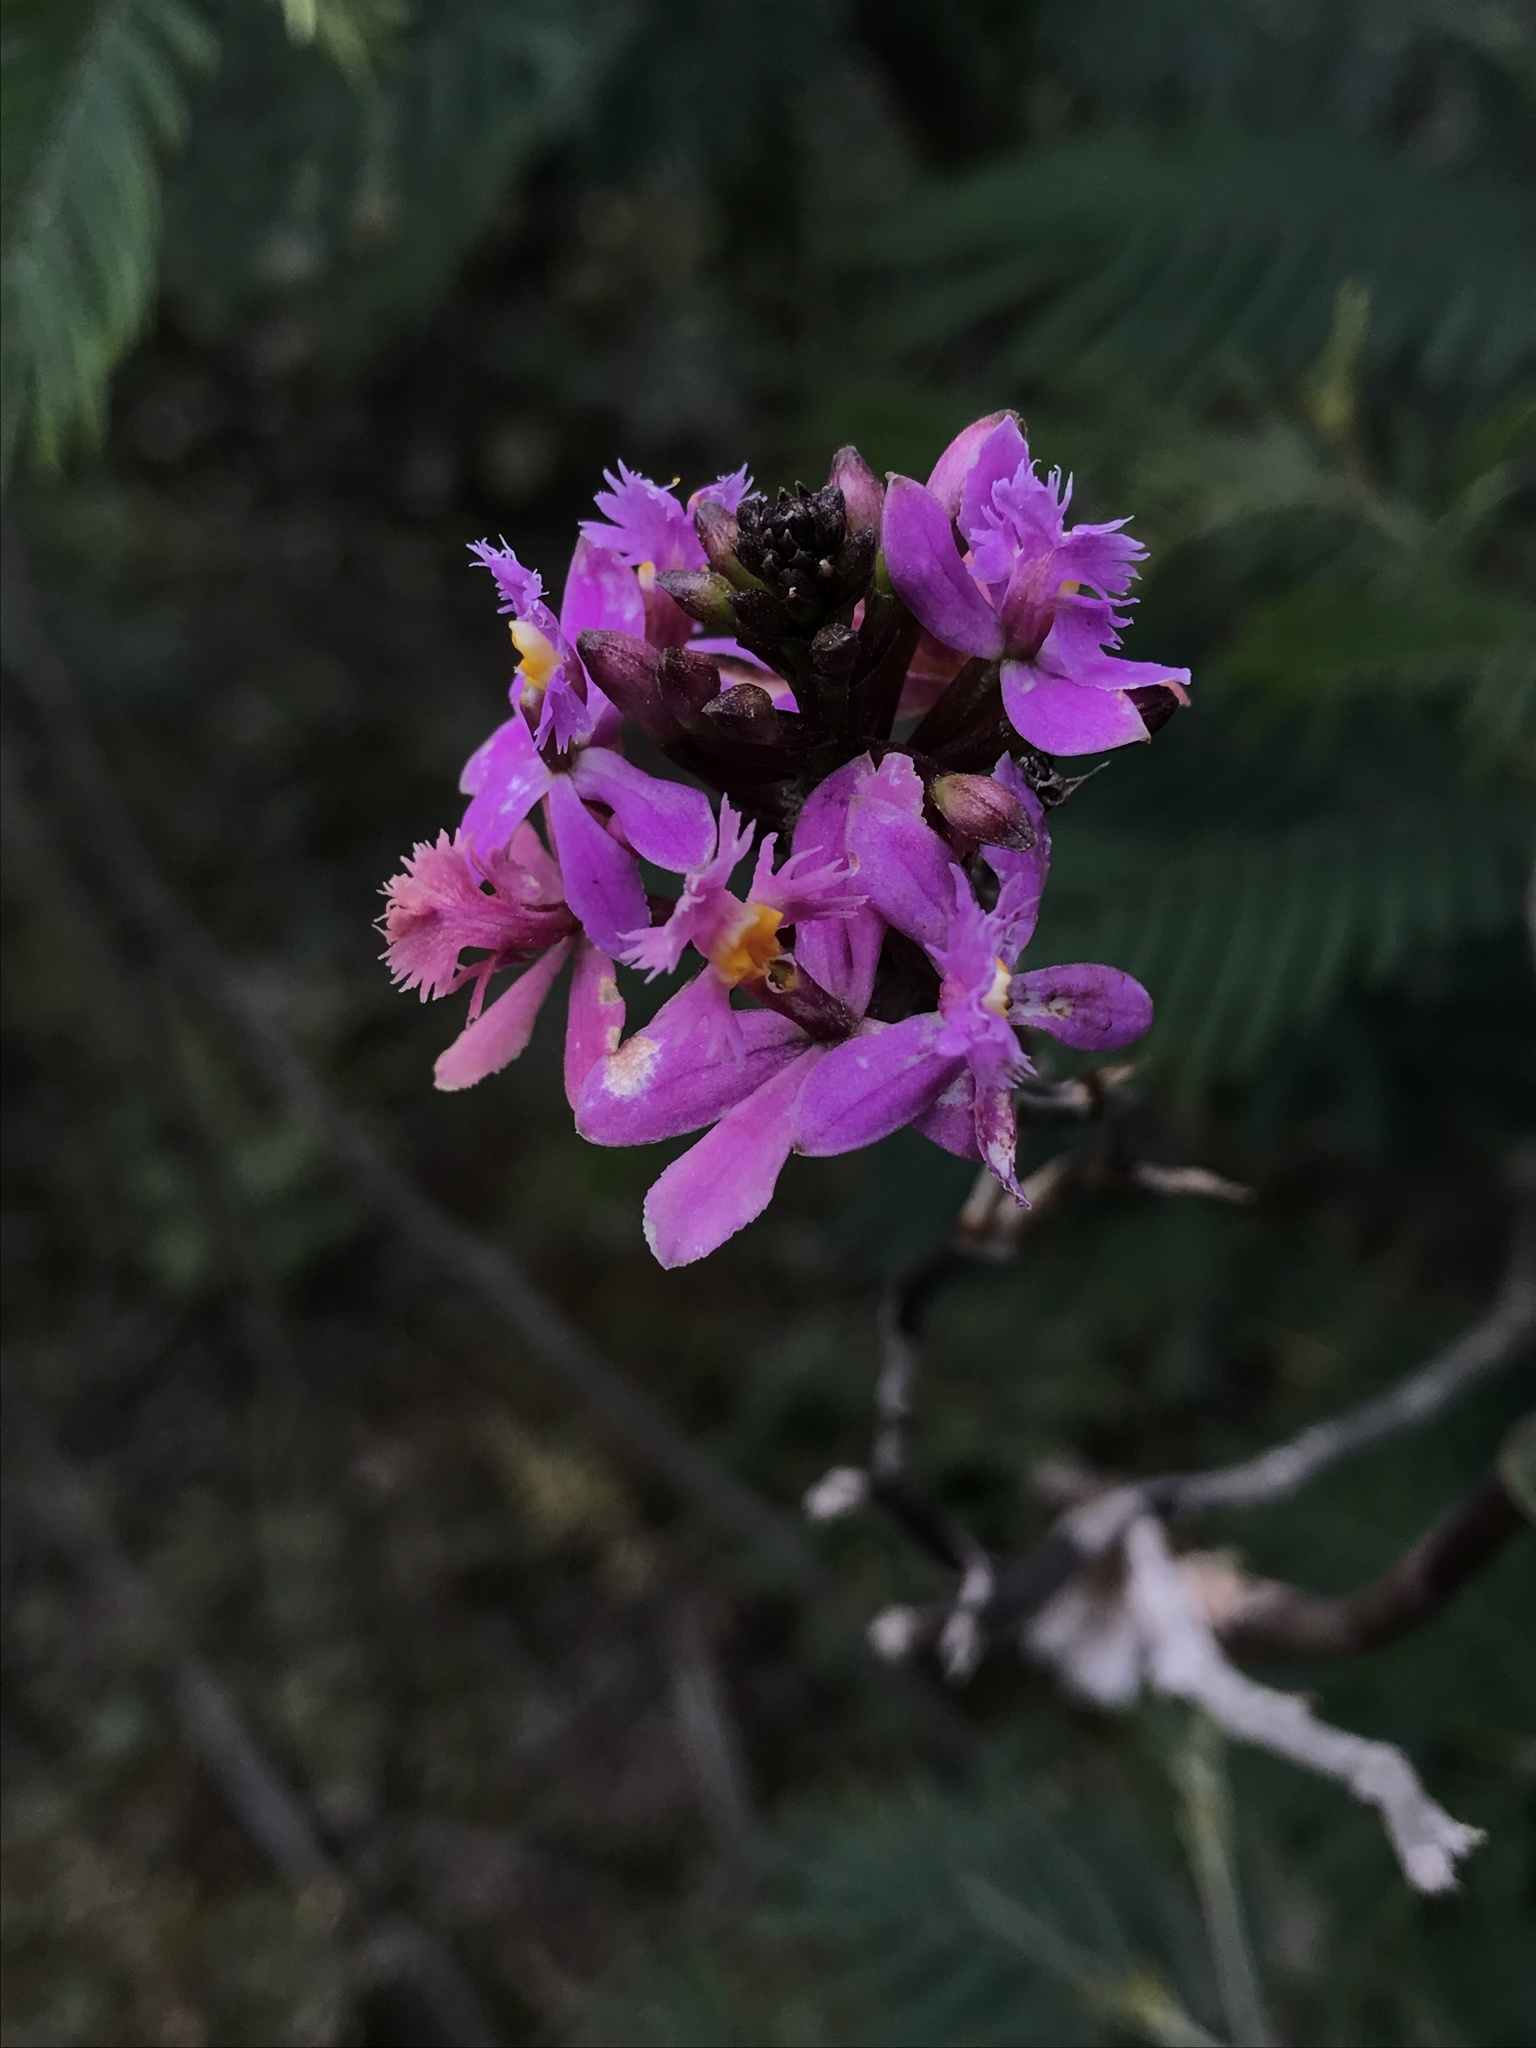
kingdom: Plantae
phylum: Tracheophyta
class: Liliopsida
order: Asparagales
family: Orchidaceae
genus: Epidendrum
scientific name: Epidendrum arachnoglossum
